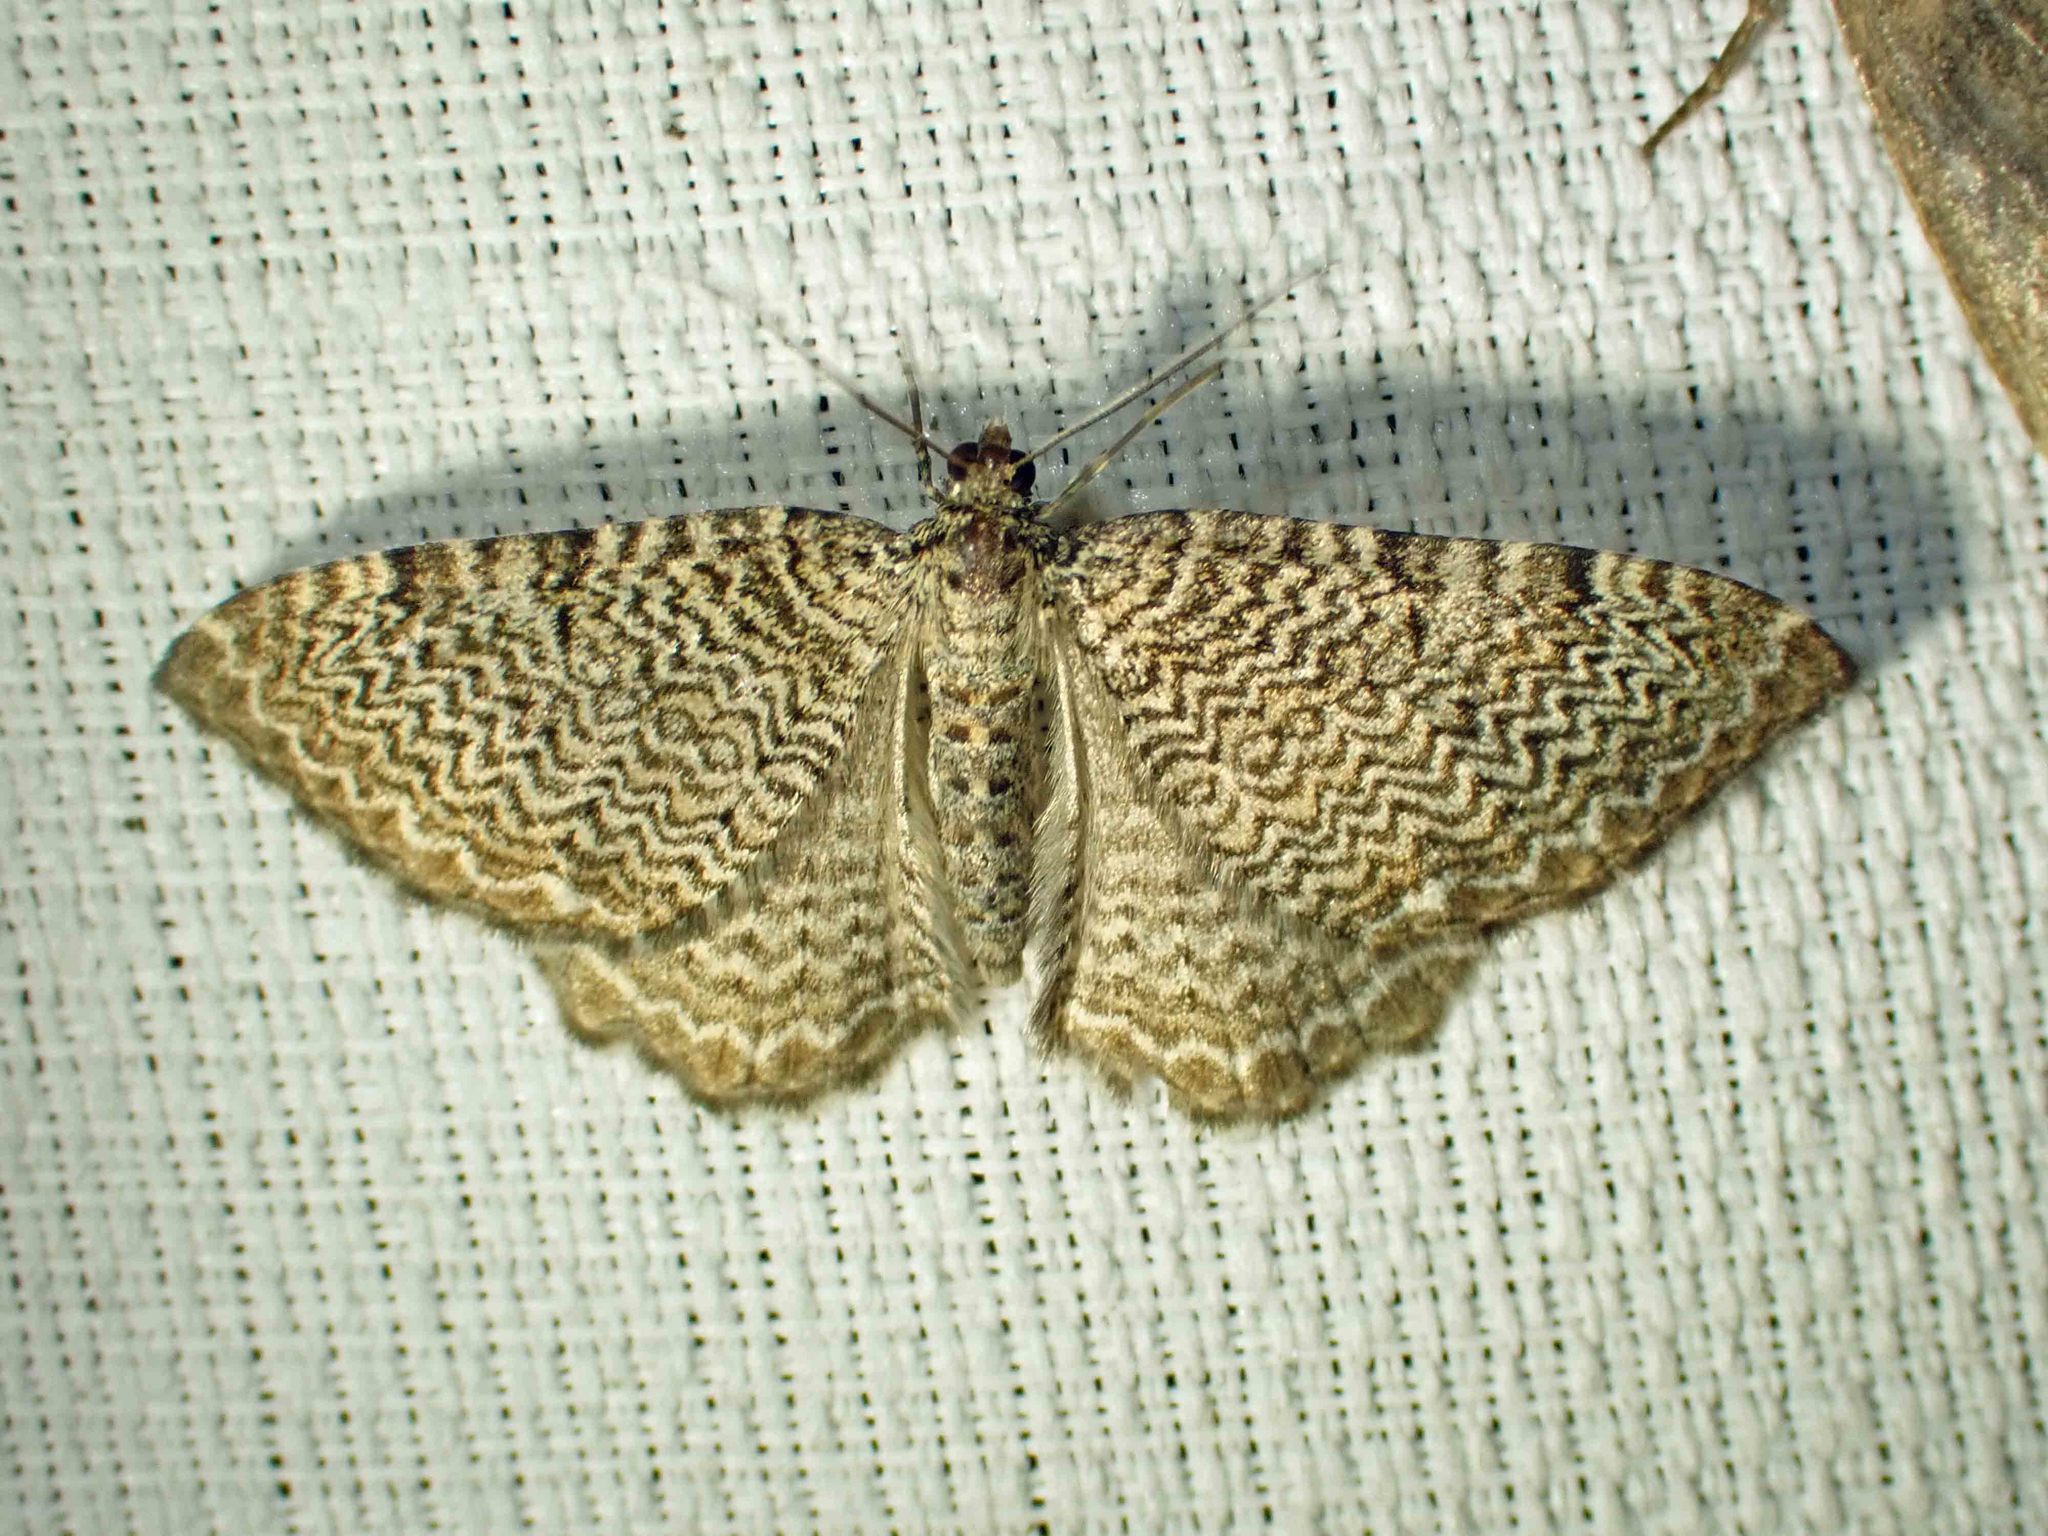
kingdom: Animalia
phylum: Arthropoda
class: Insecta
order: Lepidoptera
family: Geometridae
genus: Rheumaptera
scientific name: Rheumaptera
